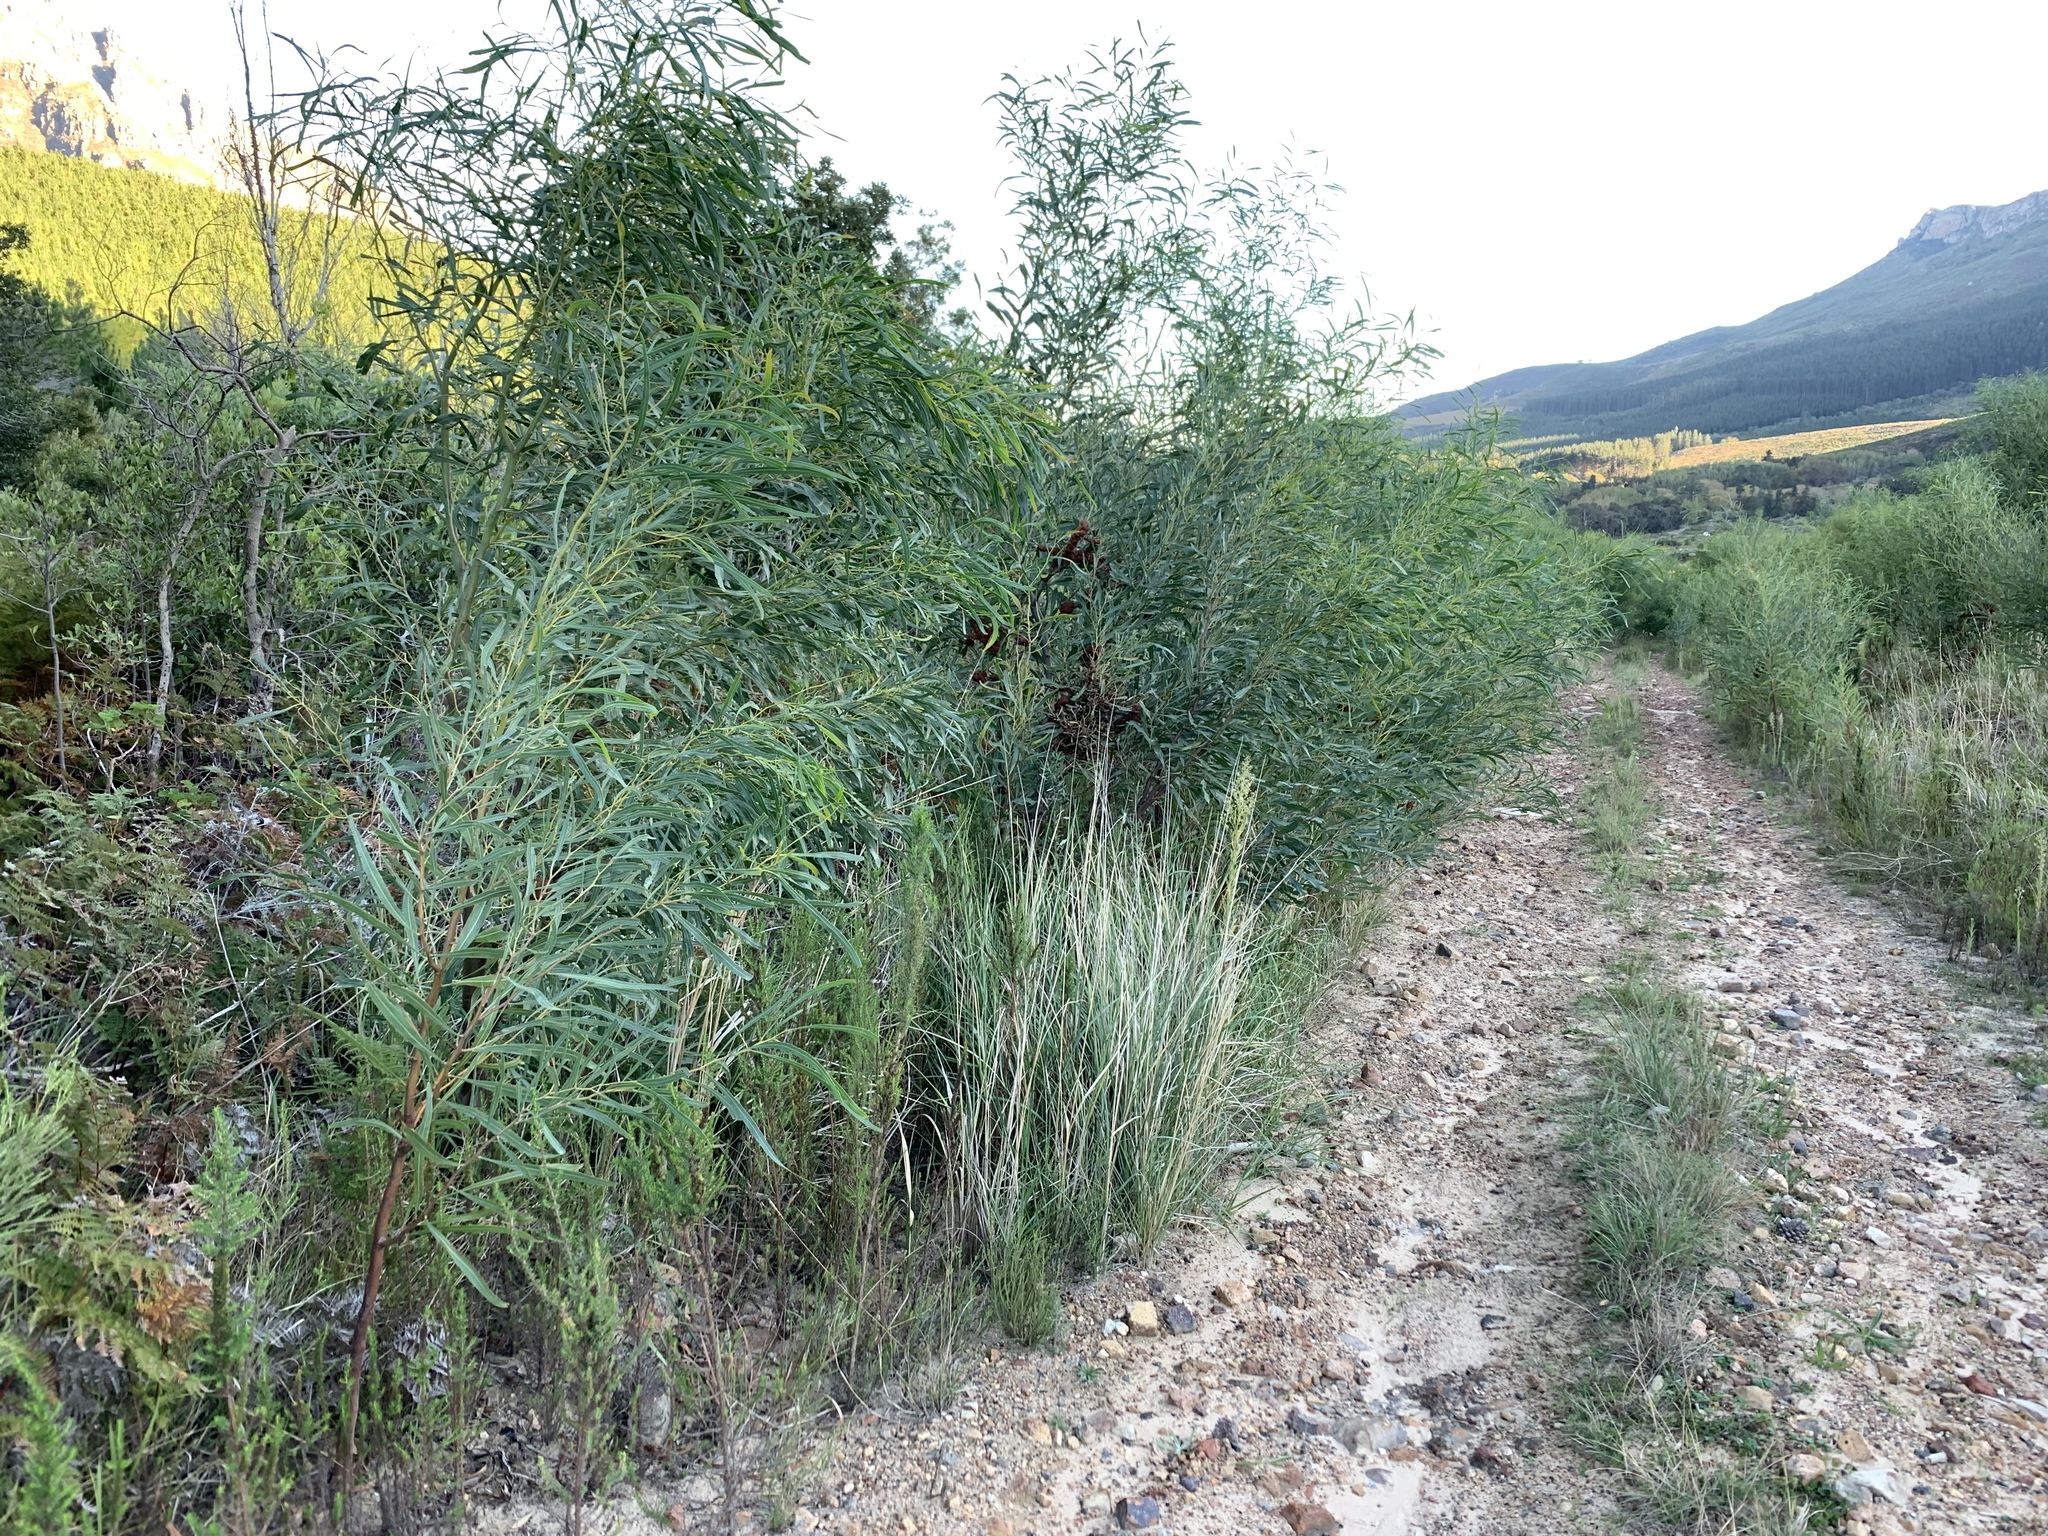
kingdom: Plantae
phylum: Tracheophyta
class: Magnoliopsida
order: Fabales
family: Fabaceae
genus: Acacia
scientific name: Acacia saligna
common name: Orange wattle
